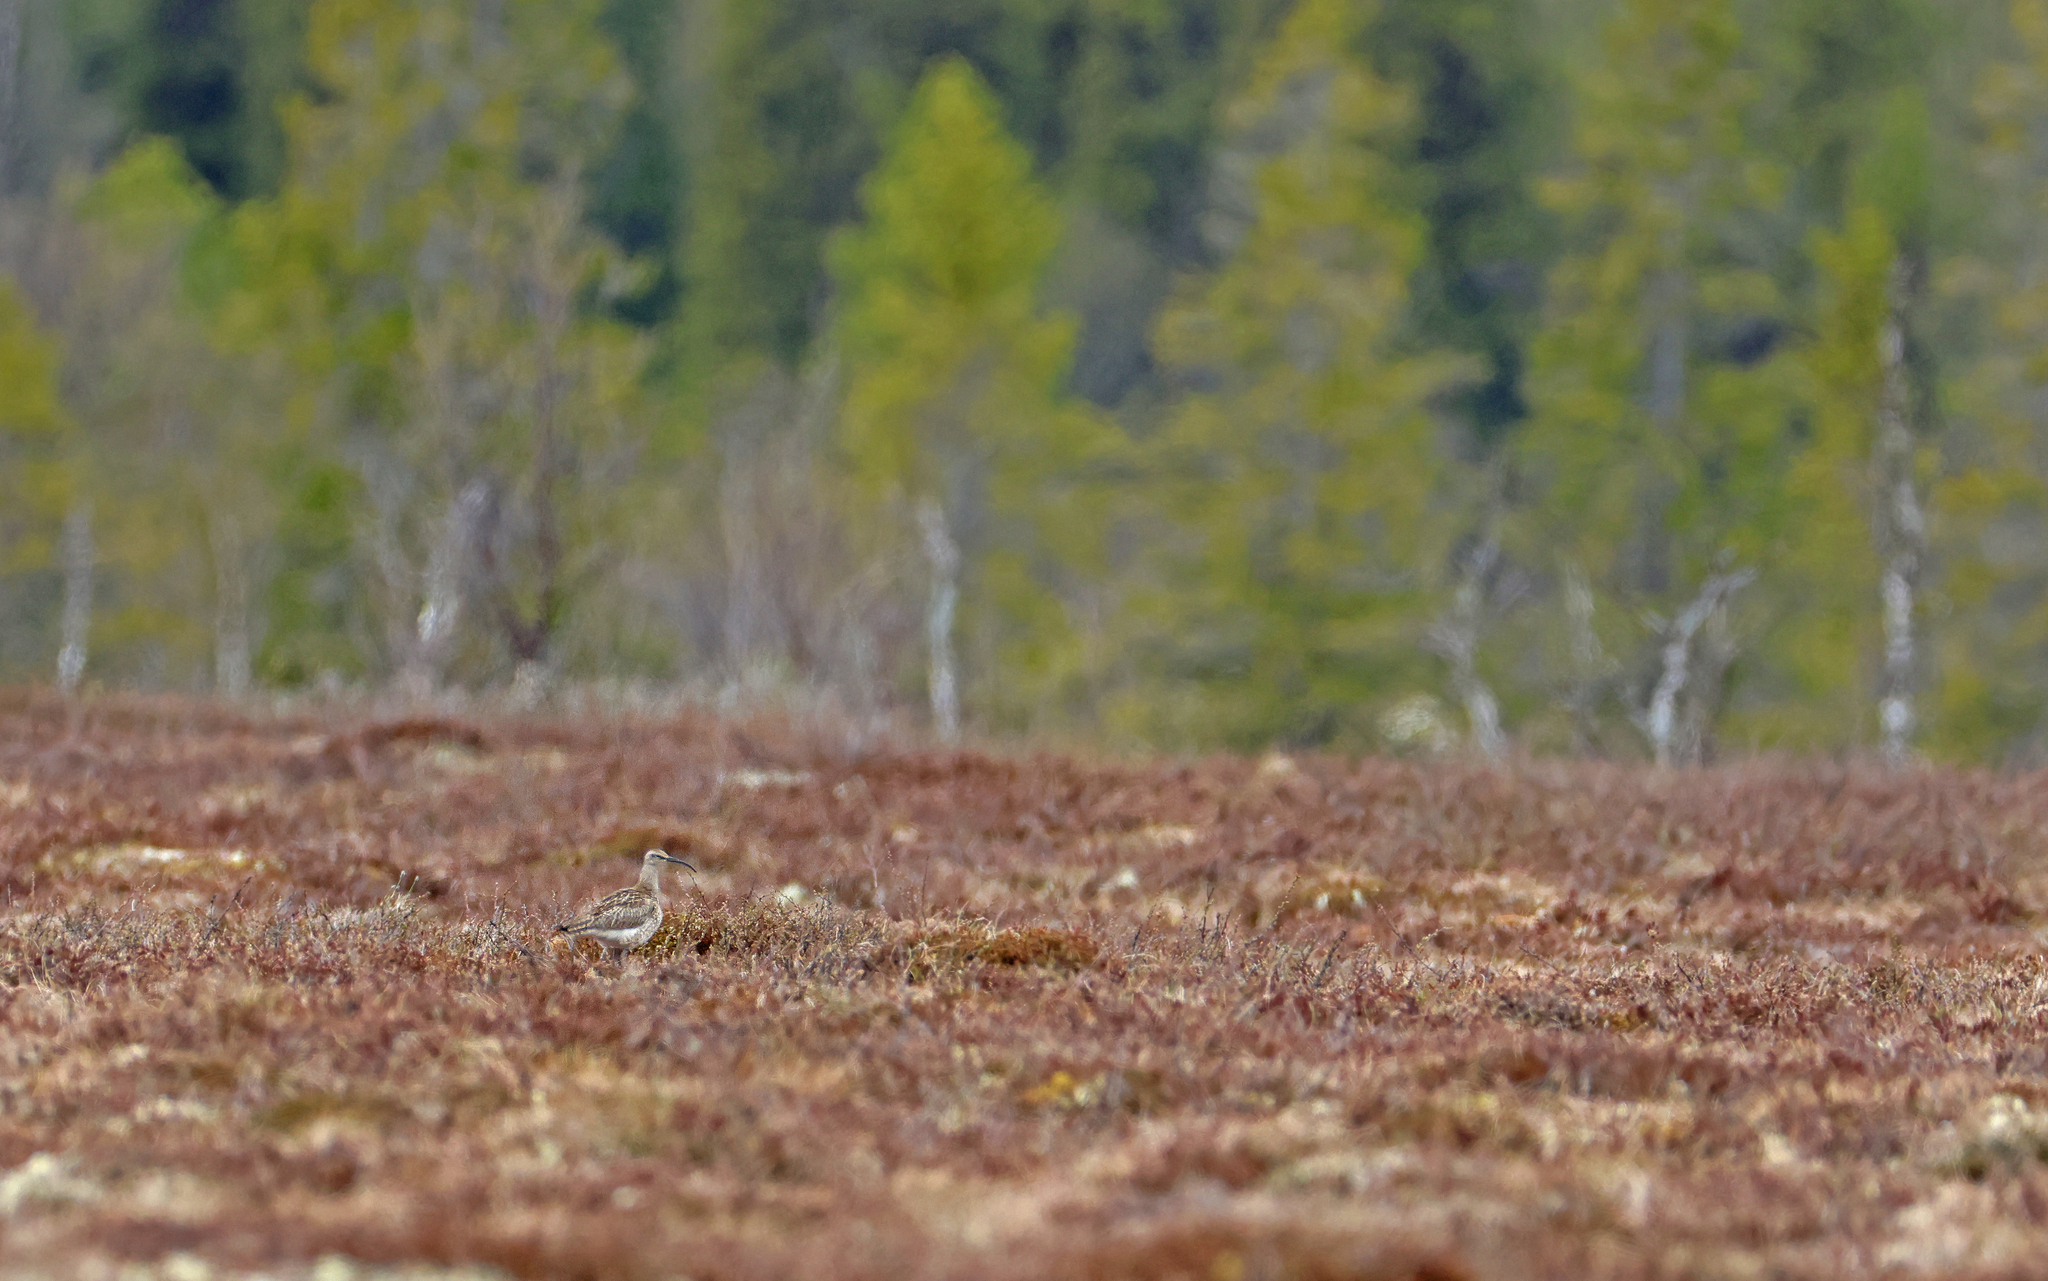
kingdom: Animalia
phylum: Chordata
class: Aves
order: Charadriiformes
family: Scolopacidae
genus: Numenius
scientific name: Numenius phaeopus
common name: Whimbrel
